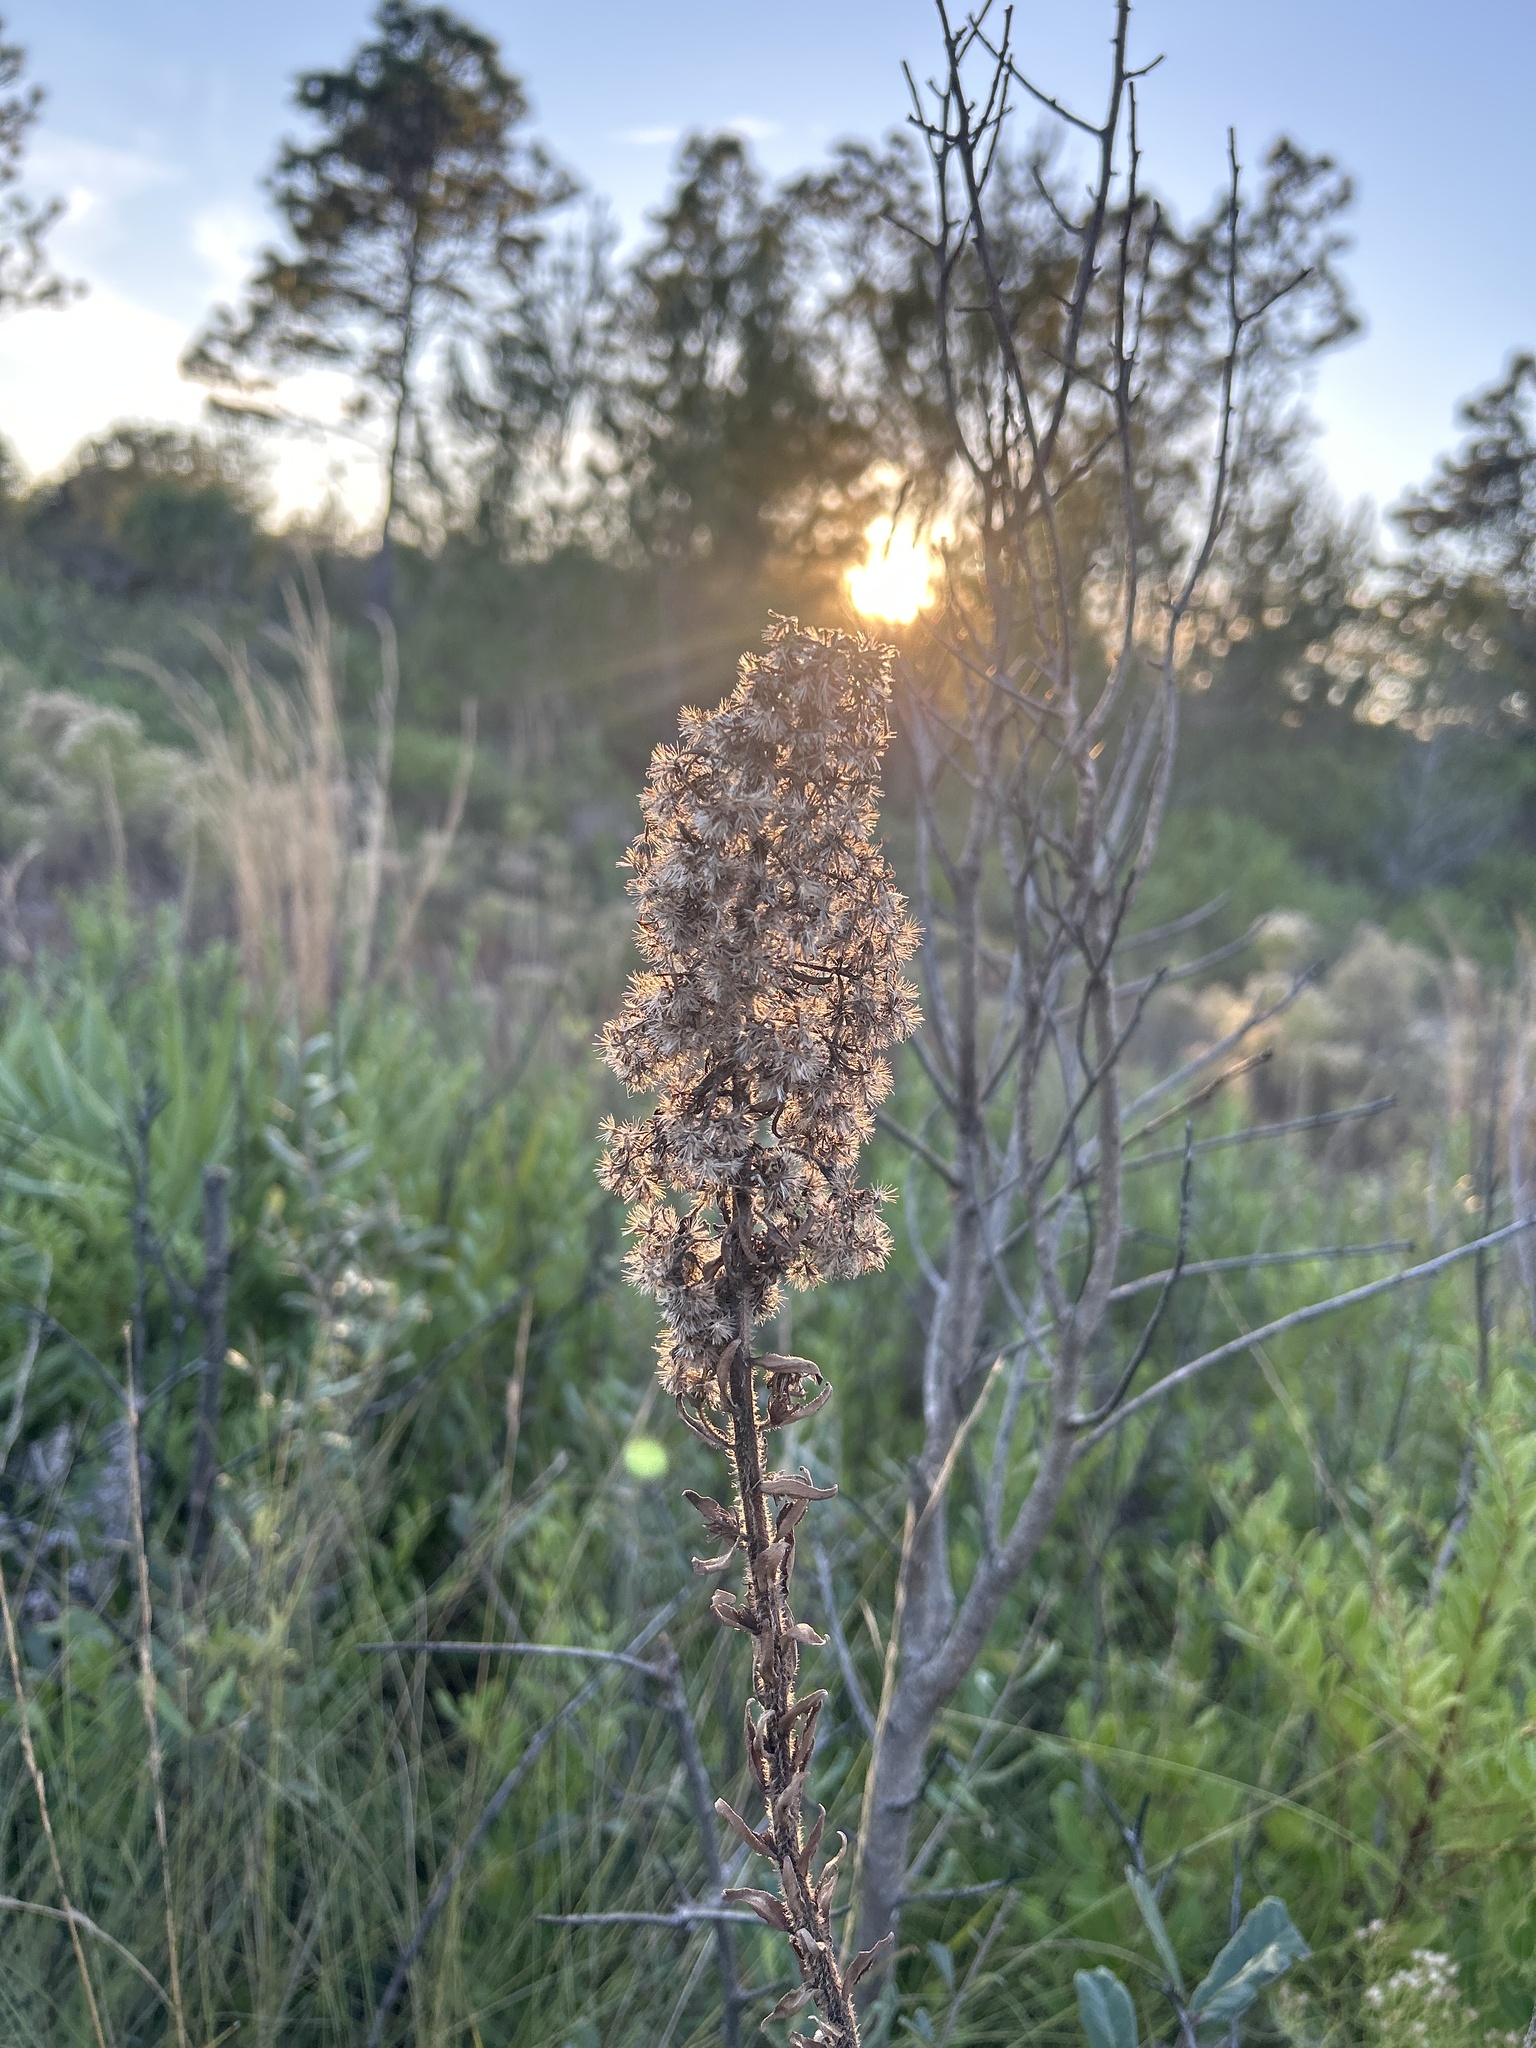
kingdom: Plantae
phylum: Tracheophyta
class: Magnoliopsida
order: Asterales
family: Asteraceae
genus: Carphephorus
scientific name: Carphephorus paniculatus
